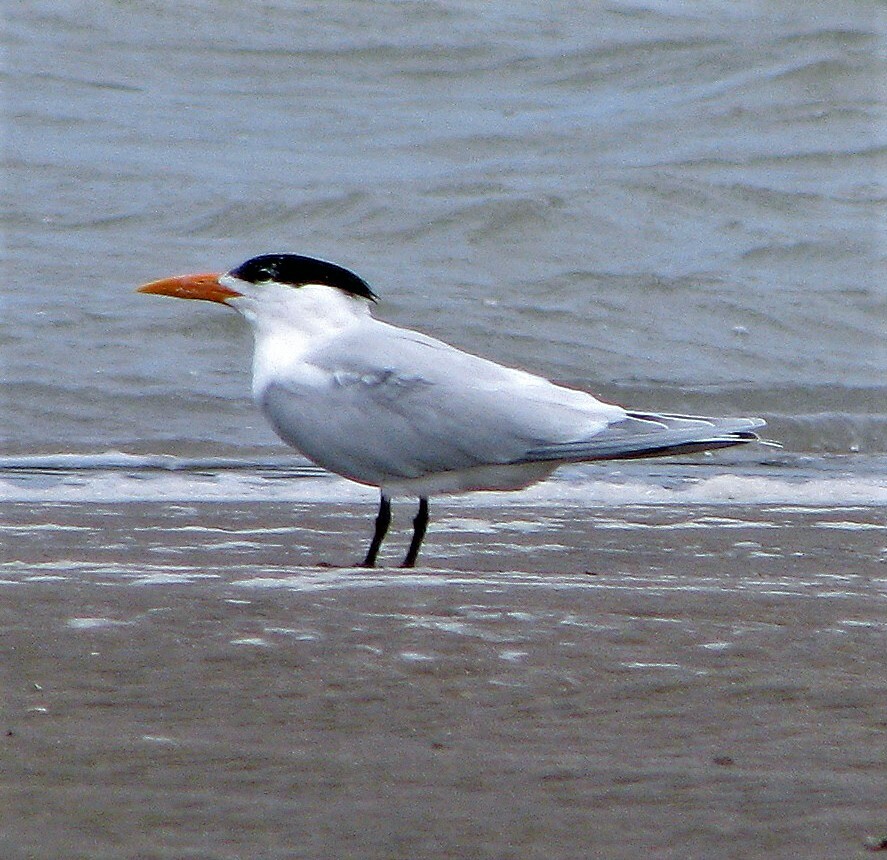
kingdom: Animalia
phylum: Chordata
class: Aves
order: Charadriiformes
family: Laridae
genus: Thalasseus
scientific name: Thalasseus maximus
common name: Royal tern
